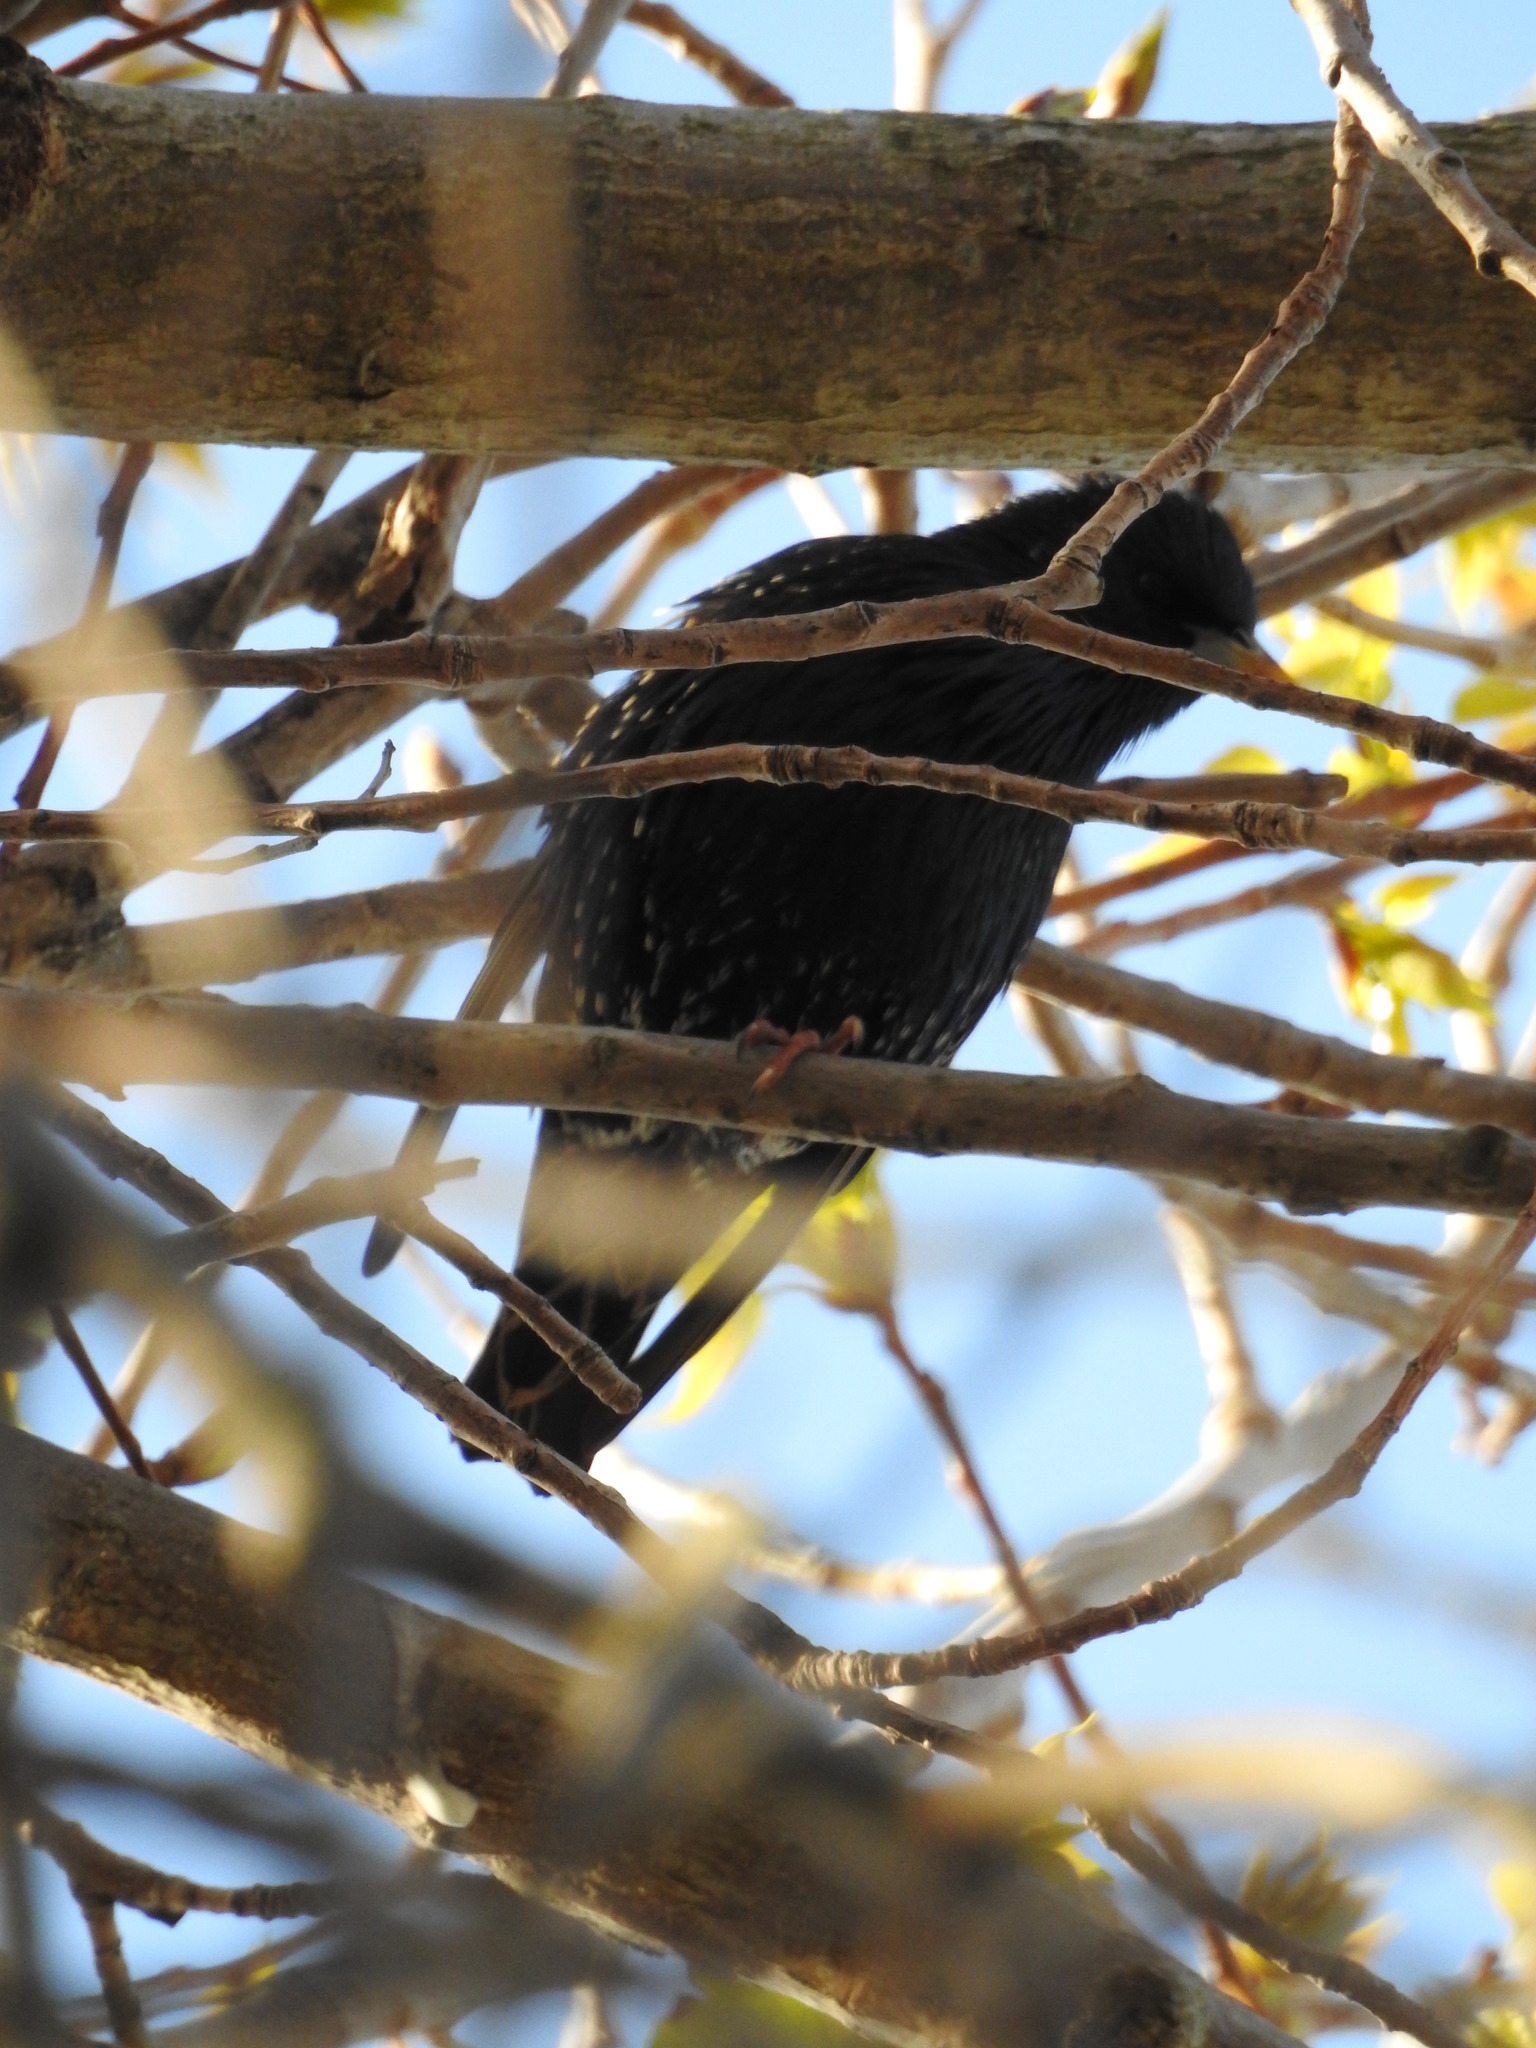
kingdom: Animalia
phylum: Chordata
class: Aves
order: Passeriformes
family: Sturnidae
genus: Sturnus
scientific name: Sturnus vulgaris
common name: Common starling
